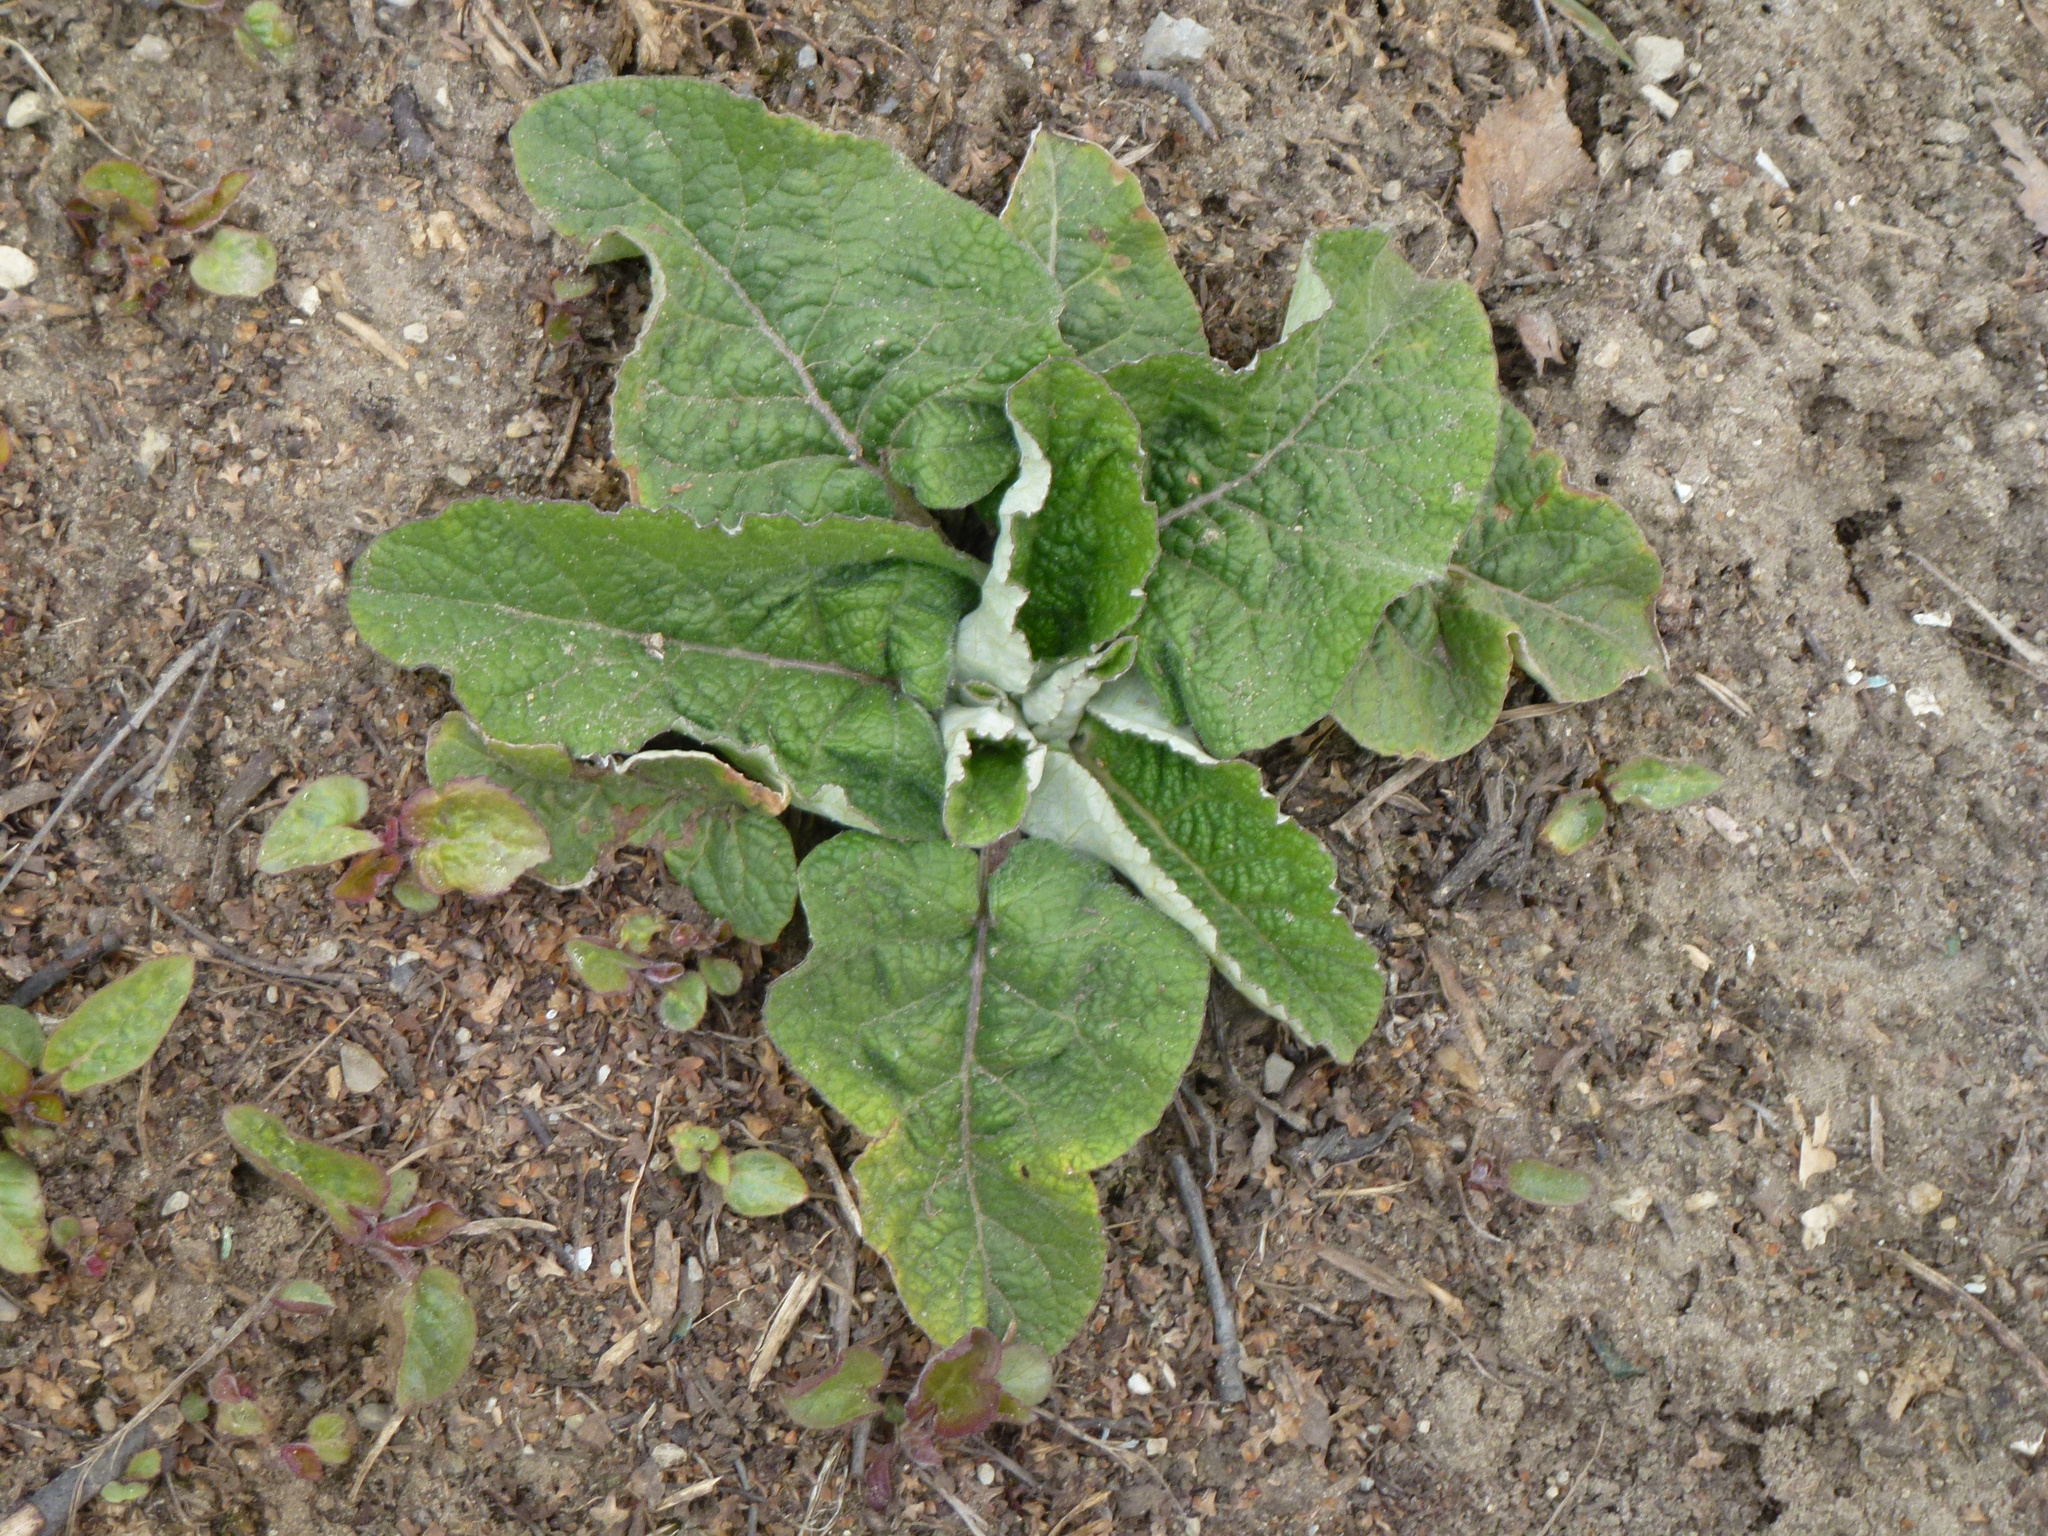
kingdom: Plantae
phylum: Tracheophyta
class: Magnoliopsida
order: Asterales
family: Asteraceae
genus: Arctium
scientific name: Arctium tomentosum
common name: Woolly burdock
